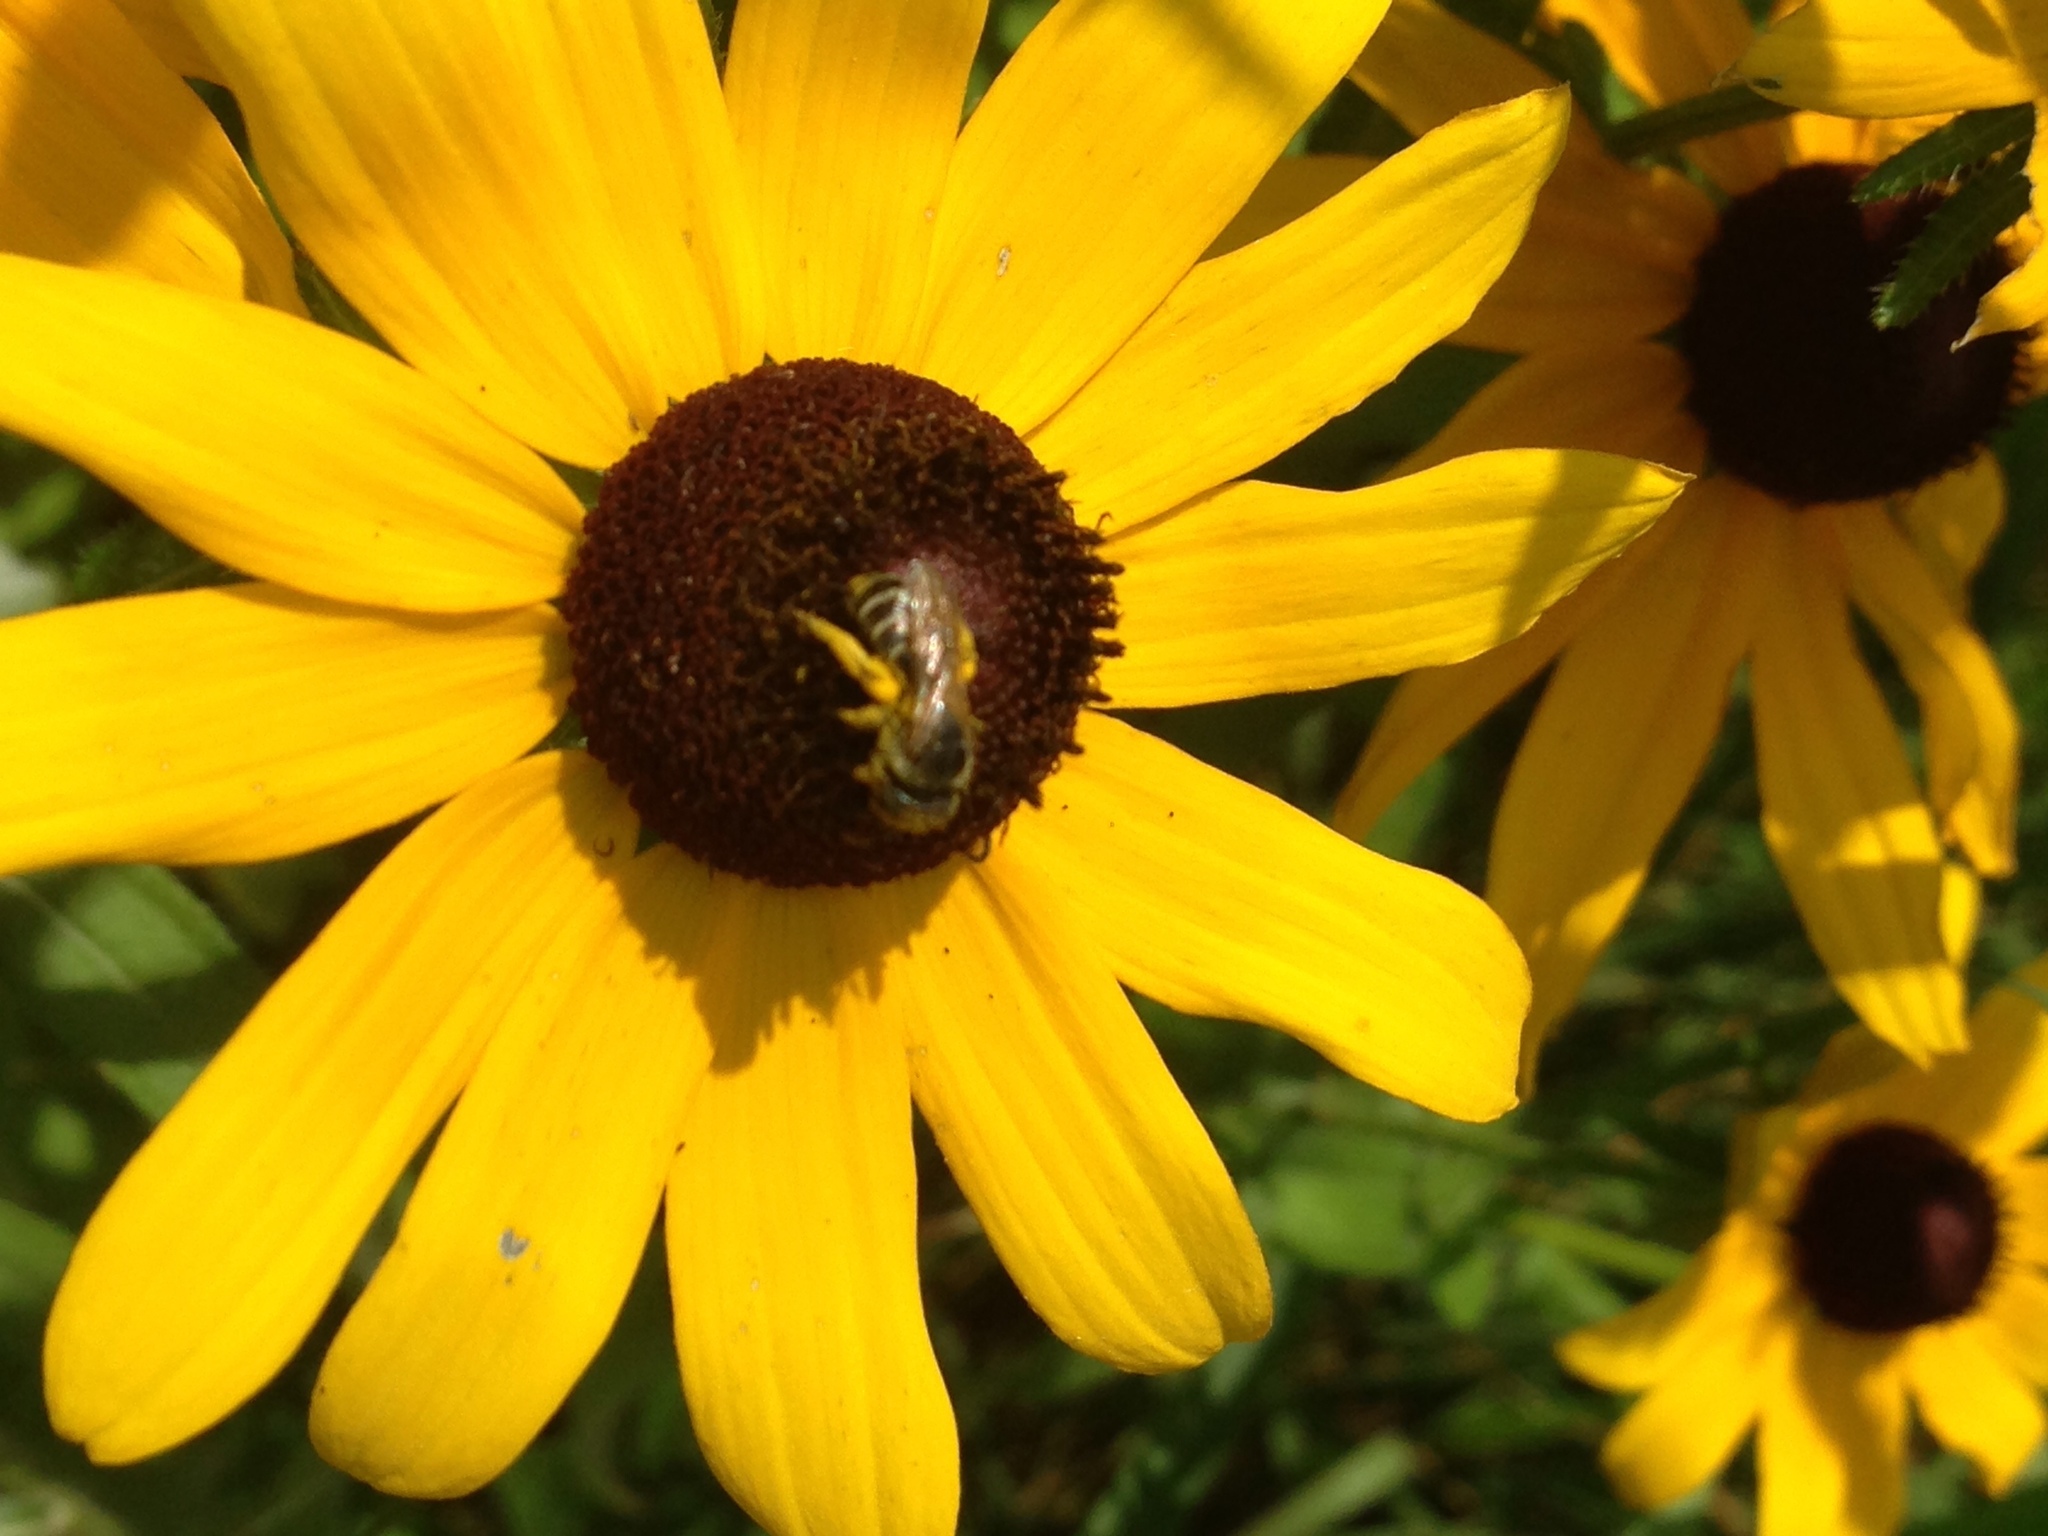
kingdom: Animalia
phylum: Arthropoda
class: Insecta
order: Hymenoptera
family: Halictidae
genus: Halictus
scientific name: Halictus ligatus
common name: Ligated furrow bee
